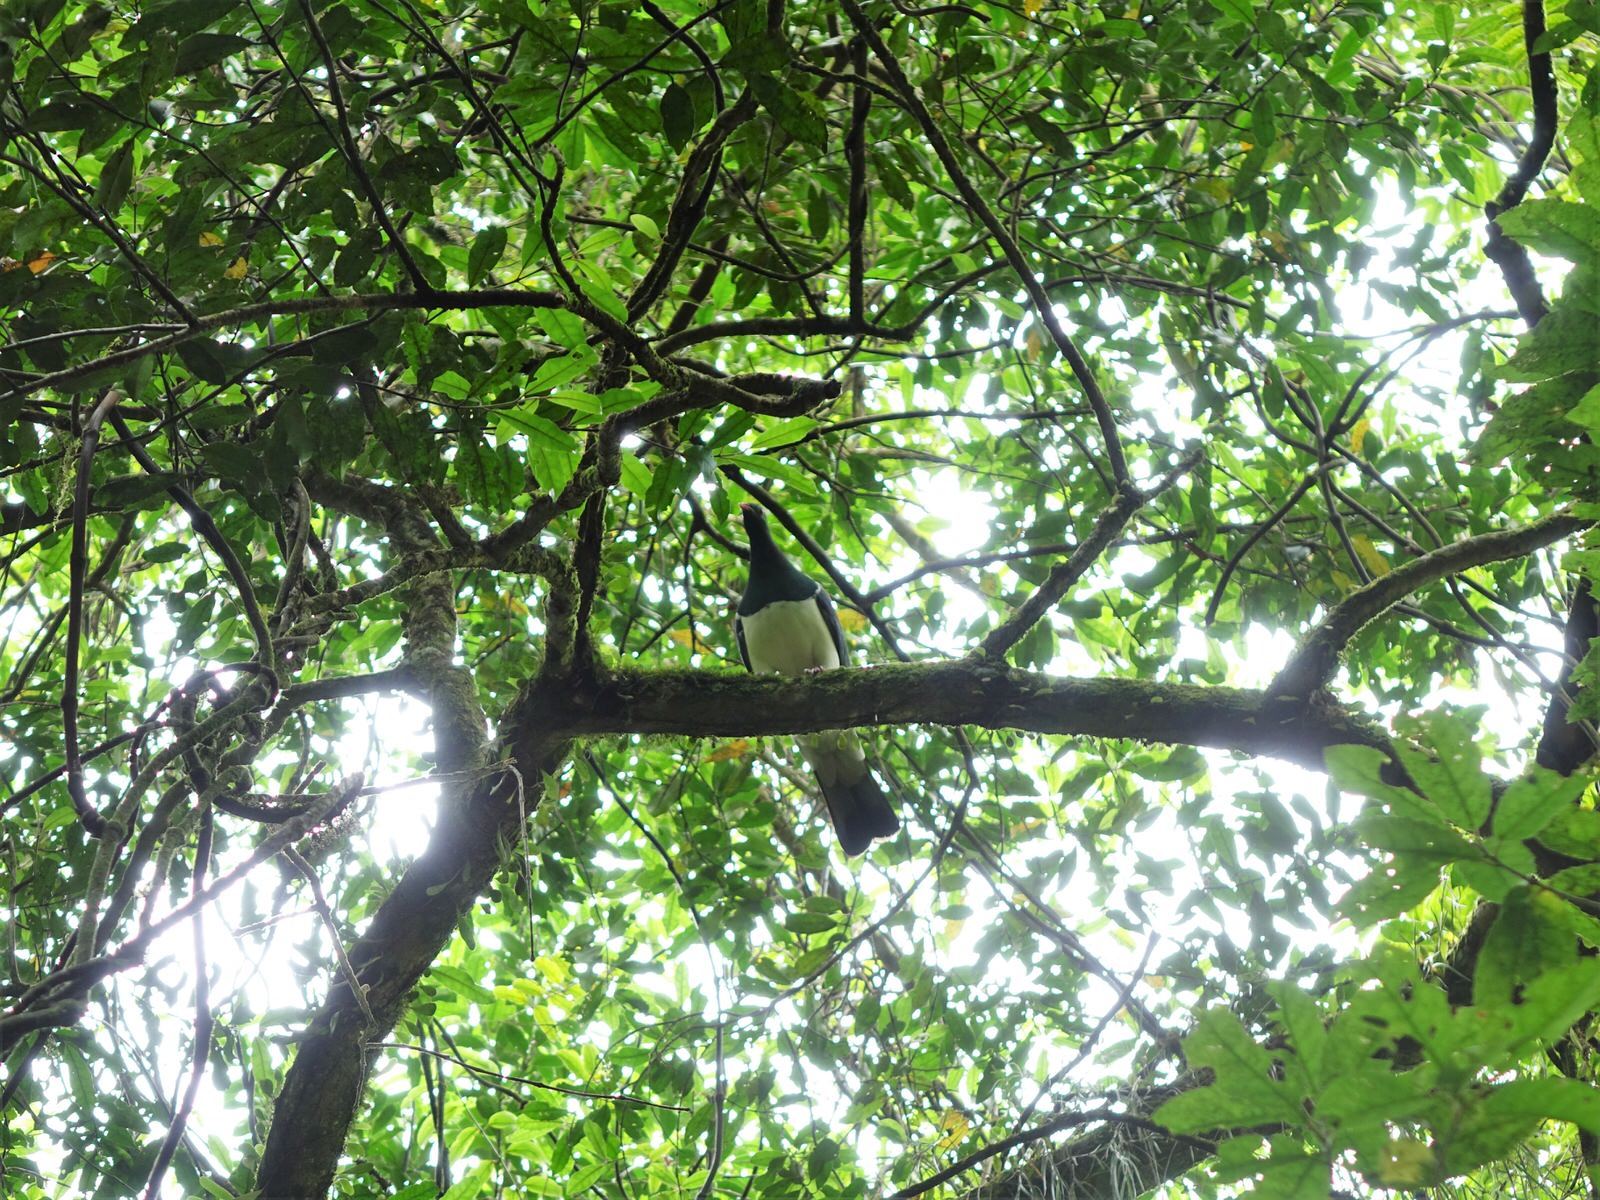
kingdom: Animalia
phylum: Chordata
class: Aves
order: Columbiformes
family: Columbidae
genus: Hemiphaga
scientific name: Hemiphaga novaeseelandiae
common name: New zealand pigeon
